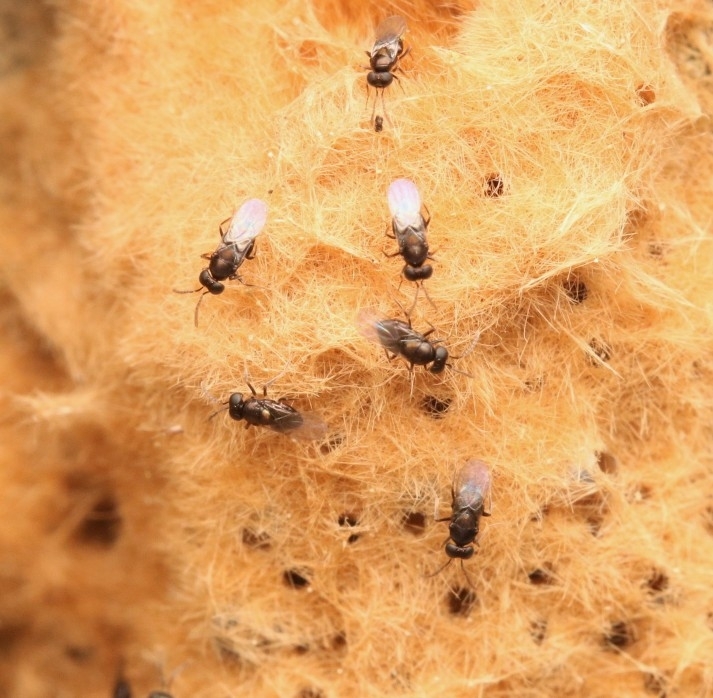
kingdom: Animalia
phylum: Arthropoda
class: Insecta
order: Hymenoptera
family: Encyrtidae
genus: Ooencyrtus
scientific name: Ooencyrtus kuvanae
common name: Wasp
